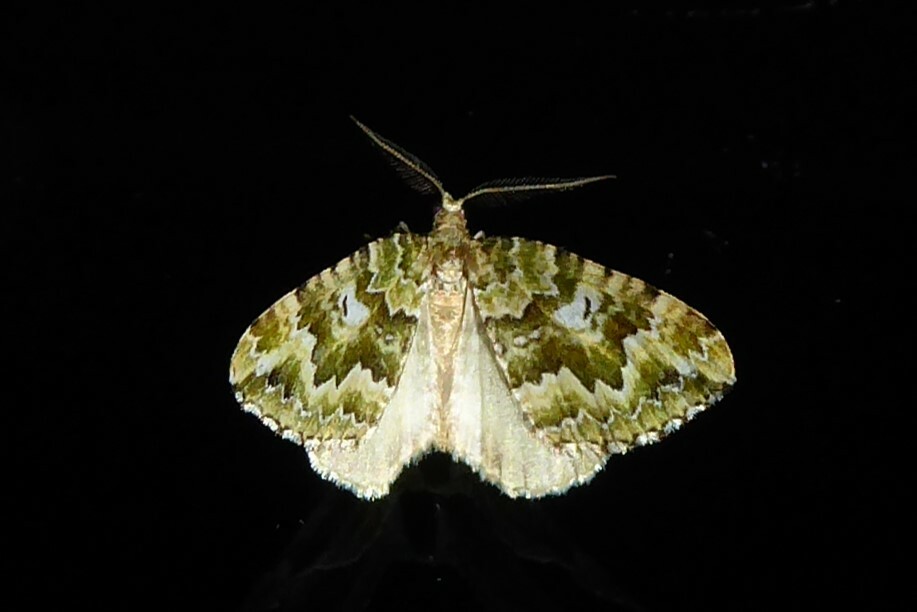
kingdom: Animalia
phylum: Arthropoda
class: Insecta
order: Lepidoptera
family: Geometridae
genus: Asaphodes
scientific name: Asaphodes beata
